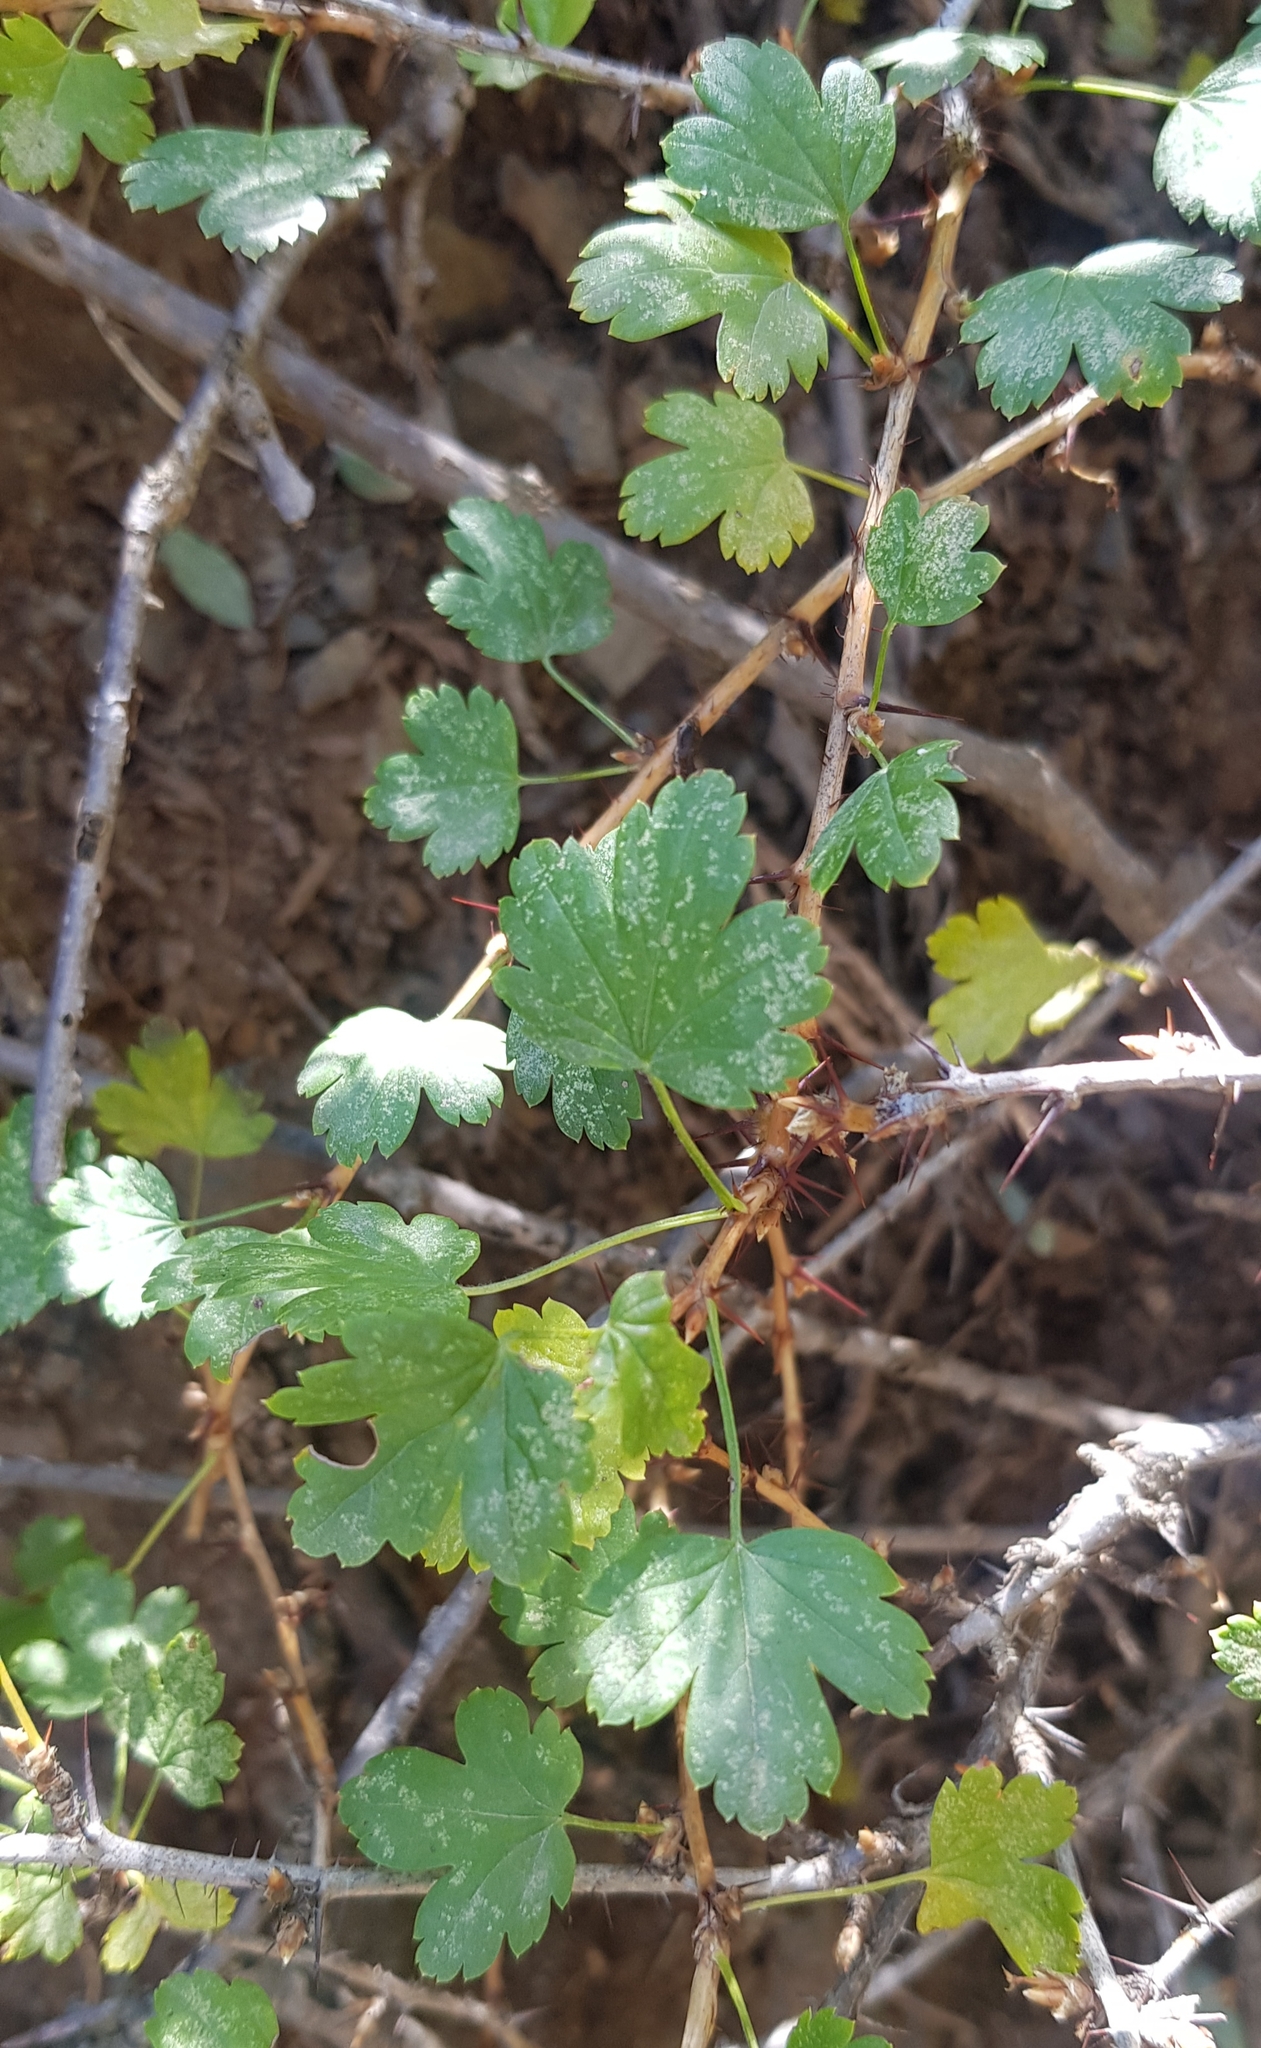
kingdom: Plantae
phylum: Tracheophyta
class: Magnoliopsida
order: Saxifragales
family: Grossulariaceae
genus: Ribes
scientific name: Ribes aciculare
